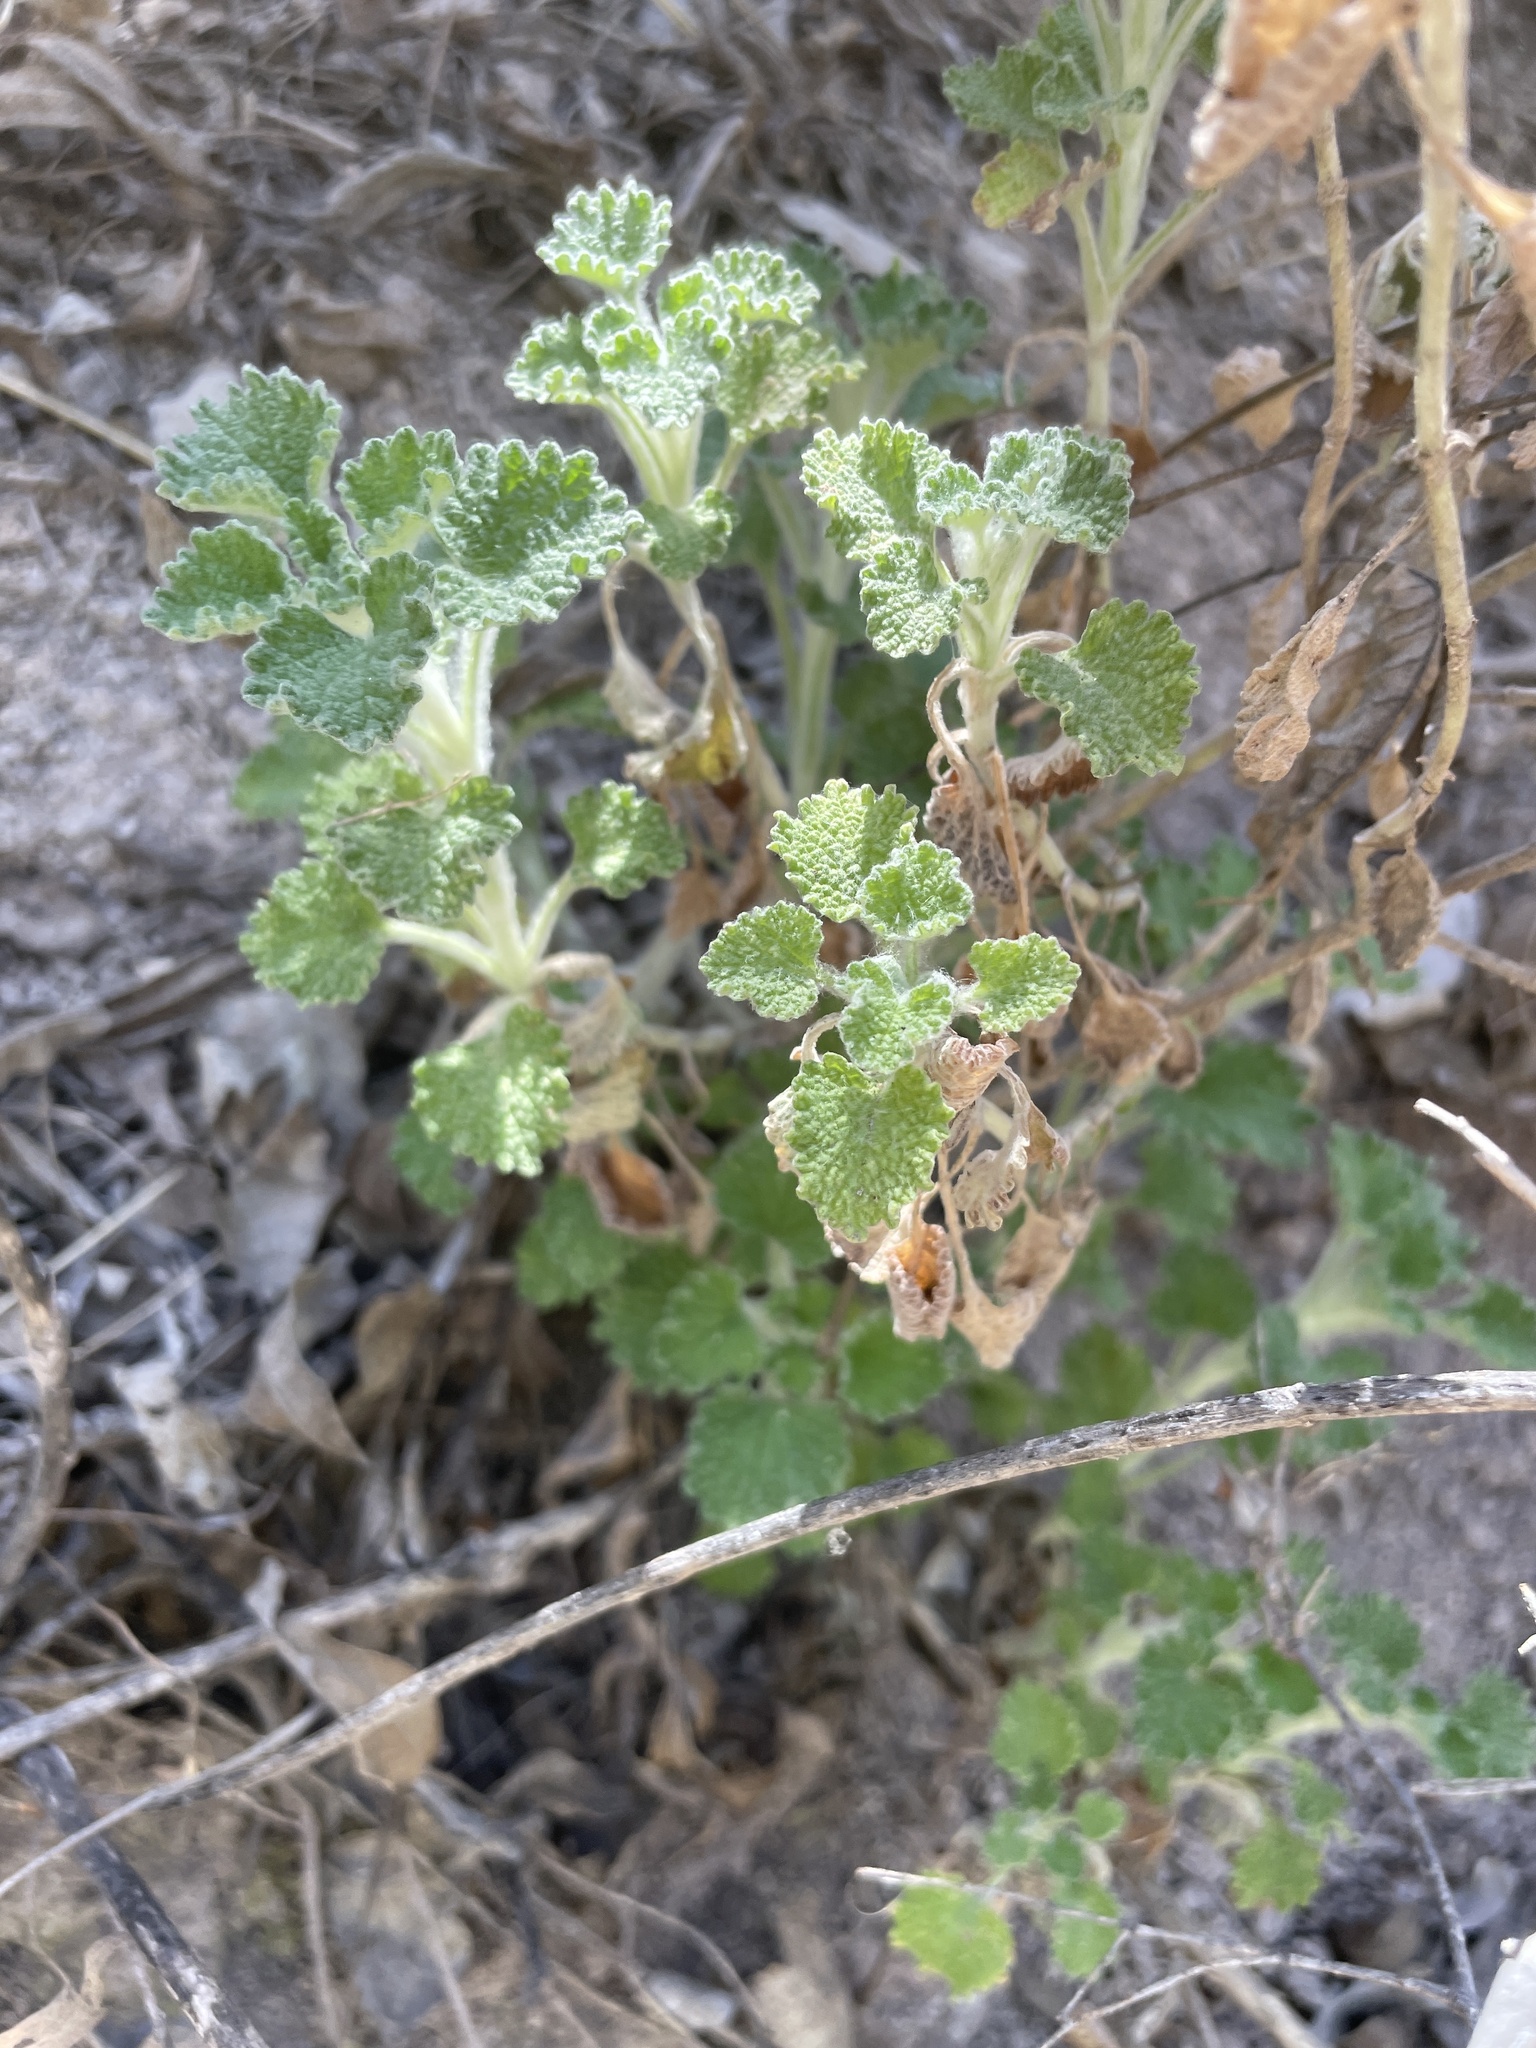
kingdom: Plantae
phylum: Tracheophyta
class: Magnoliopsida
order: Lamiales
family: Lamiaceae
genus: Marrubium
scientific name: Marrubium vulgare
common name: Horehound
